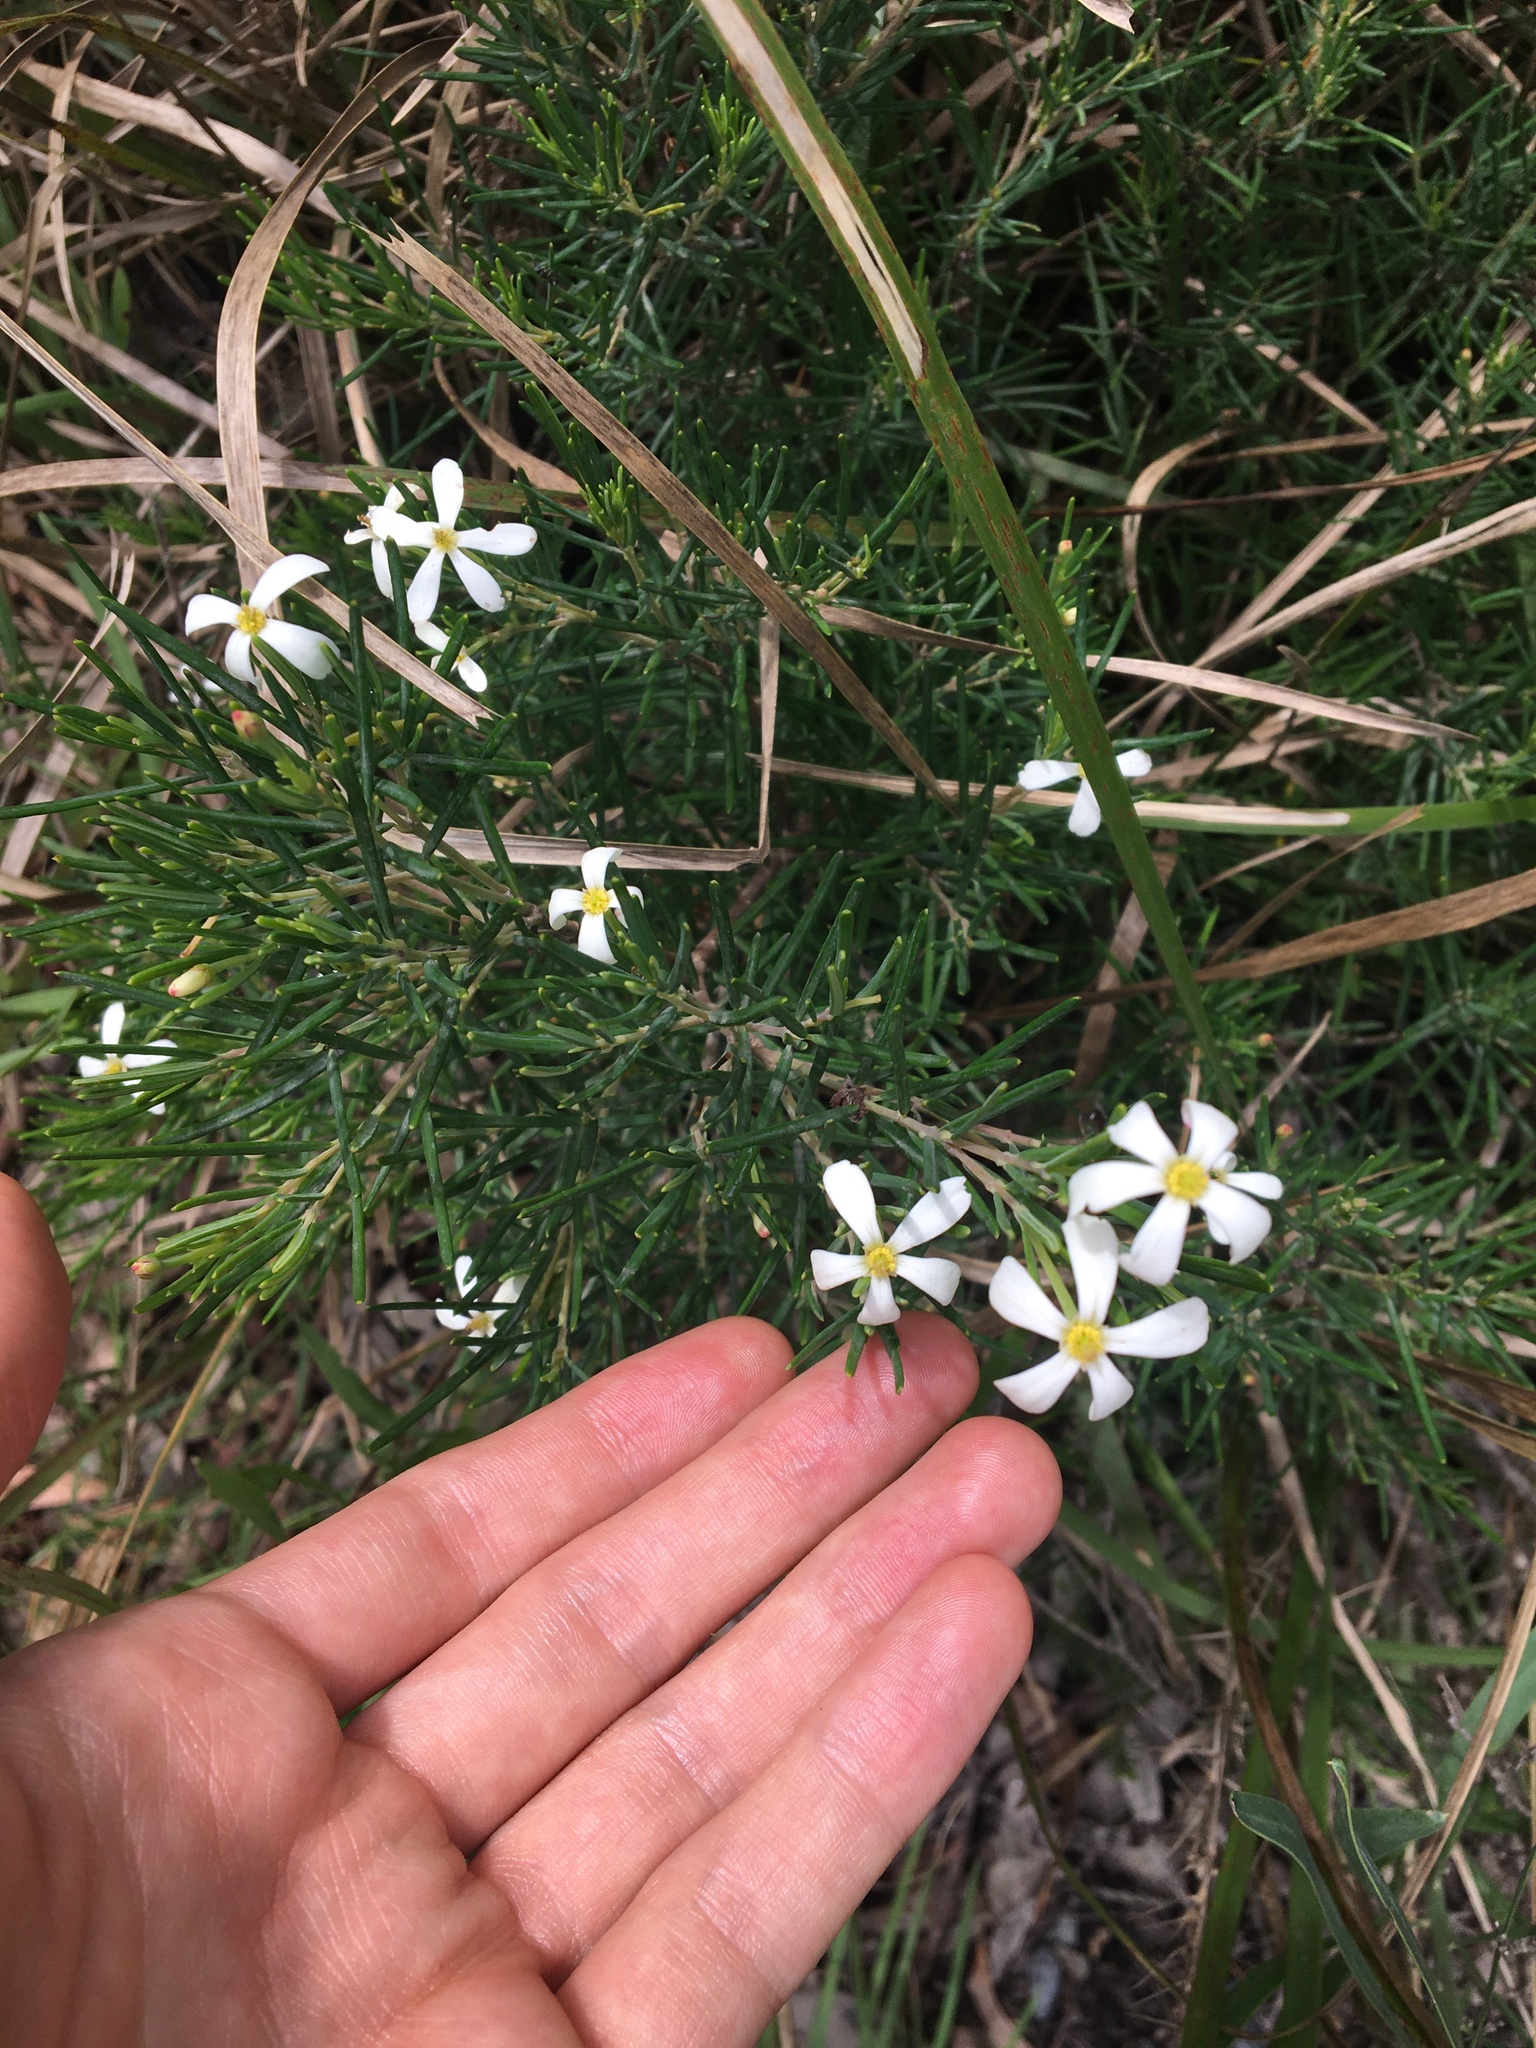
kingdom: Plantae
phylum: Tracheophyta
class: Magnoliopsida
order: Malpighiales
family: Euphorbiaceae
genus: Ricinocarpos
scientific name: Ricinocarpos pinifolius
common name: Weddingbush
